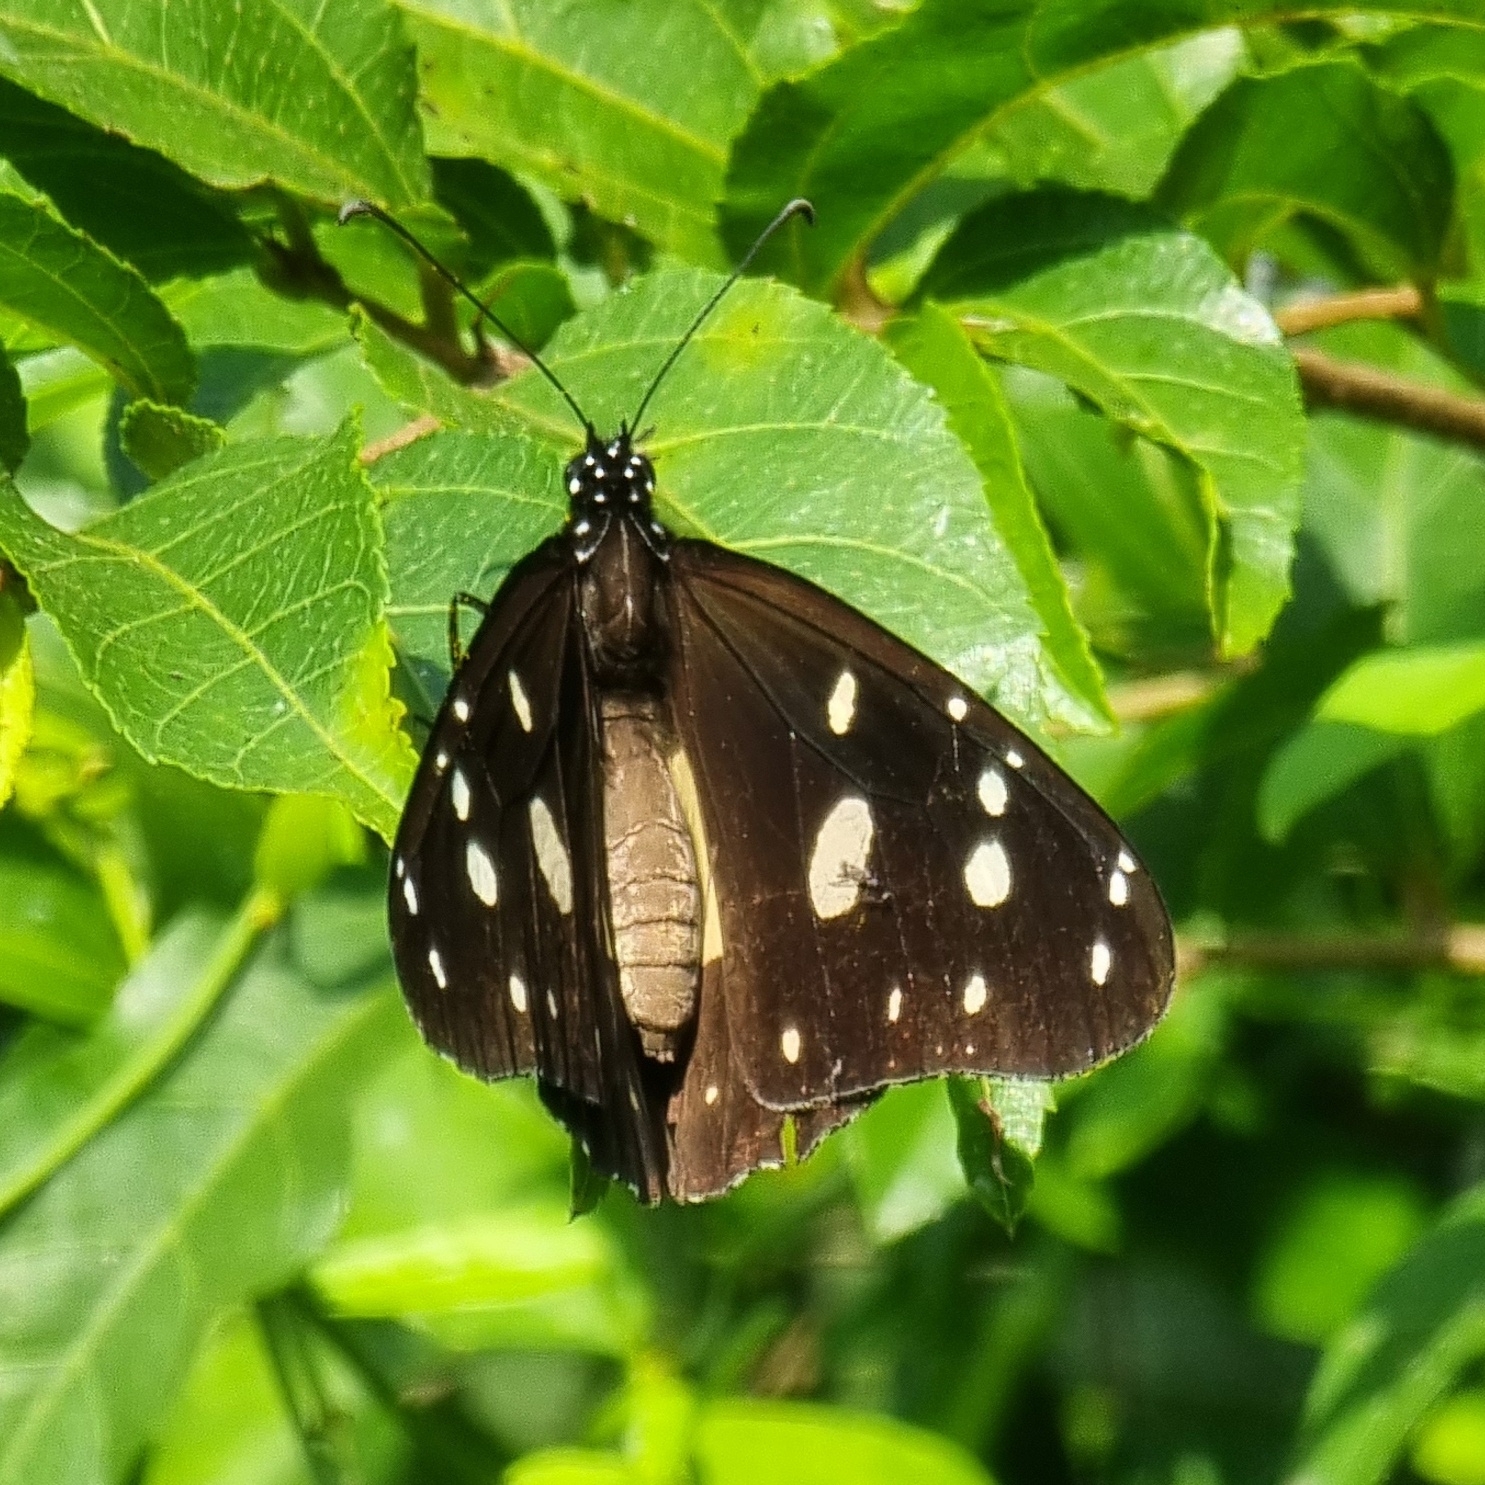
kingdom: Animalia
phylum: Arthropoda
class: Insecta
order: Lepidoptera
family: Nymphalidae
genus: Amauris
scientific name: Amauris echeria
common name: Chief
